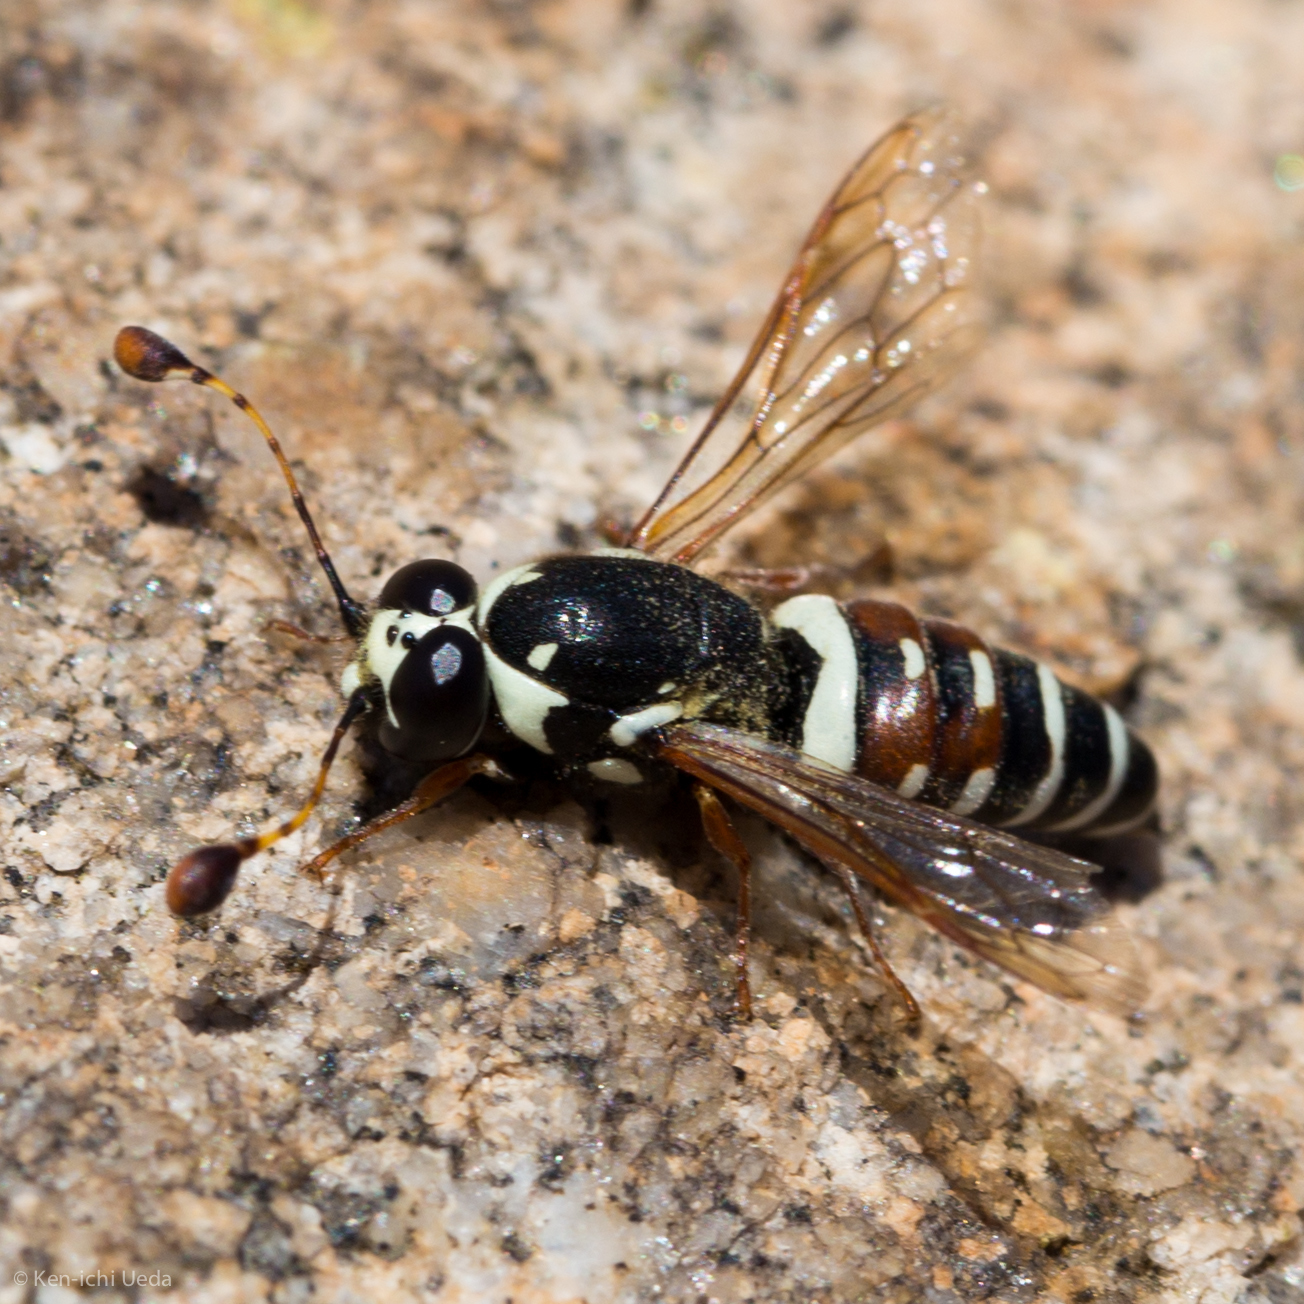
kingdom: Animalia
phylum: Arthropoda
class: Insecta
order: Hymenoptera
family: Masaridae
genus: Pseudomasaris
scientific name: Pseudomasaris maculifrons
